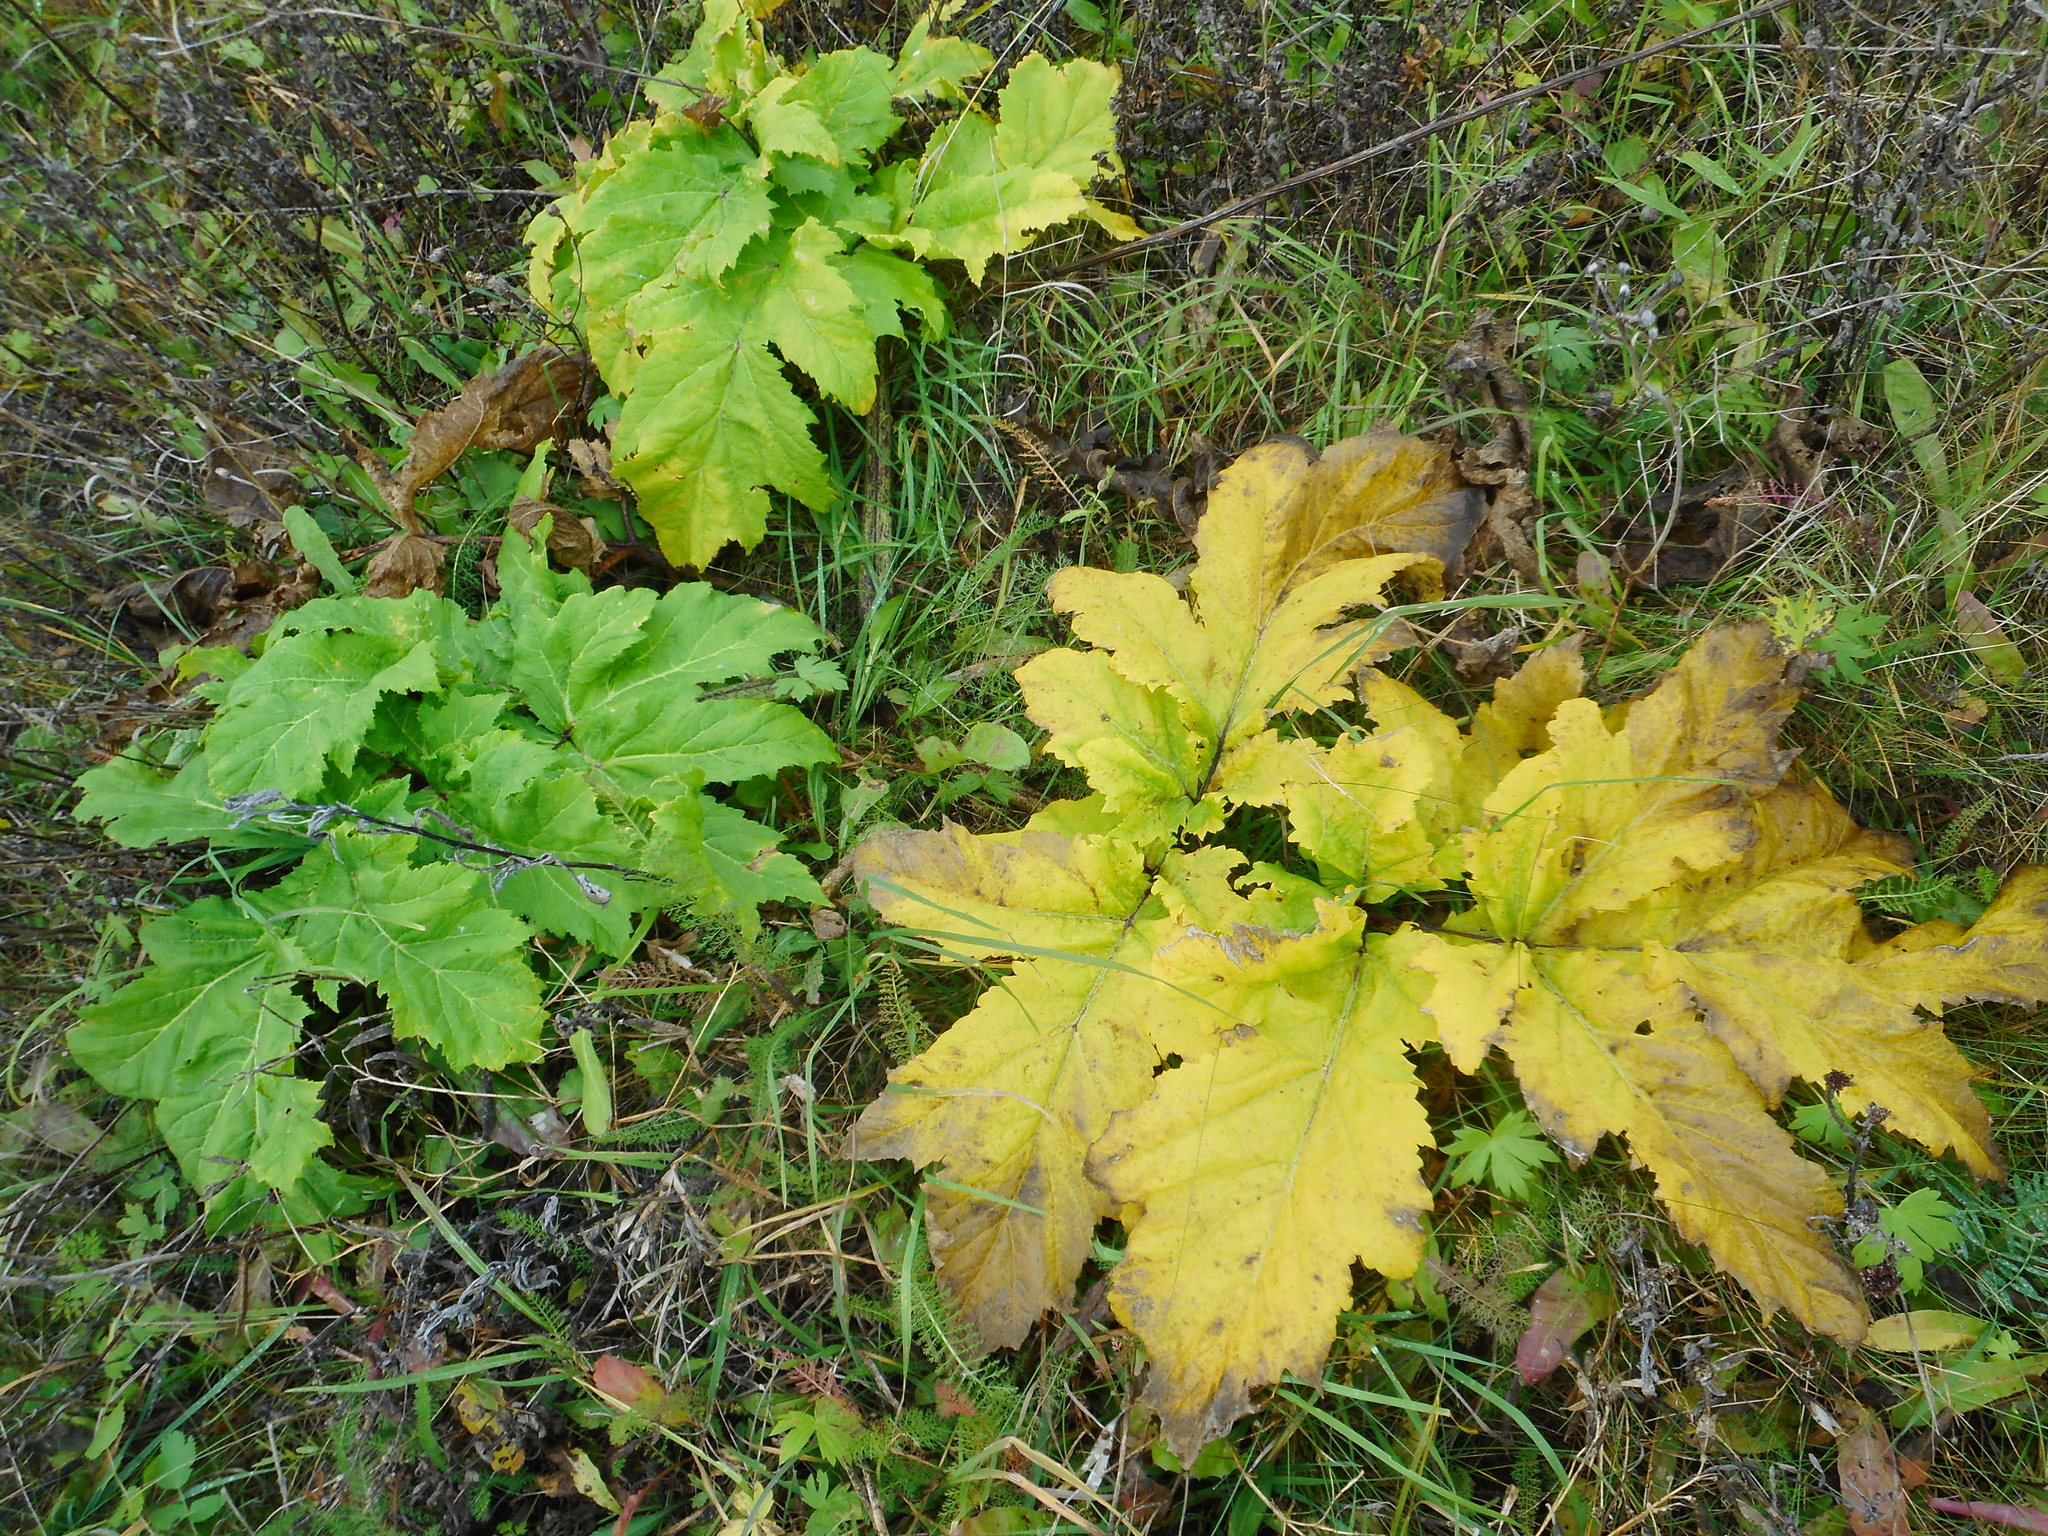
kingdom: Plantae
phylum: Tracheophyta
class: Magnoliopsida
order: Apiales
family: Apiaceae
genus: Heracleum
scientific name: Heracleum sosnowskyi
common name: Sosnowsky's hogweed
